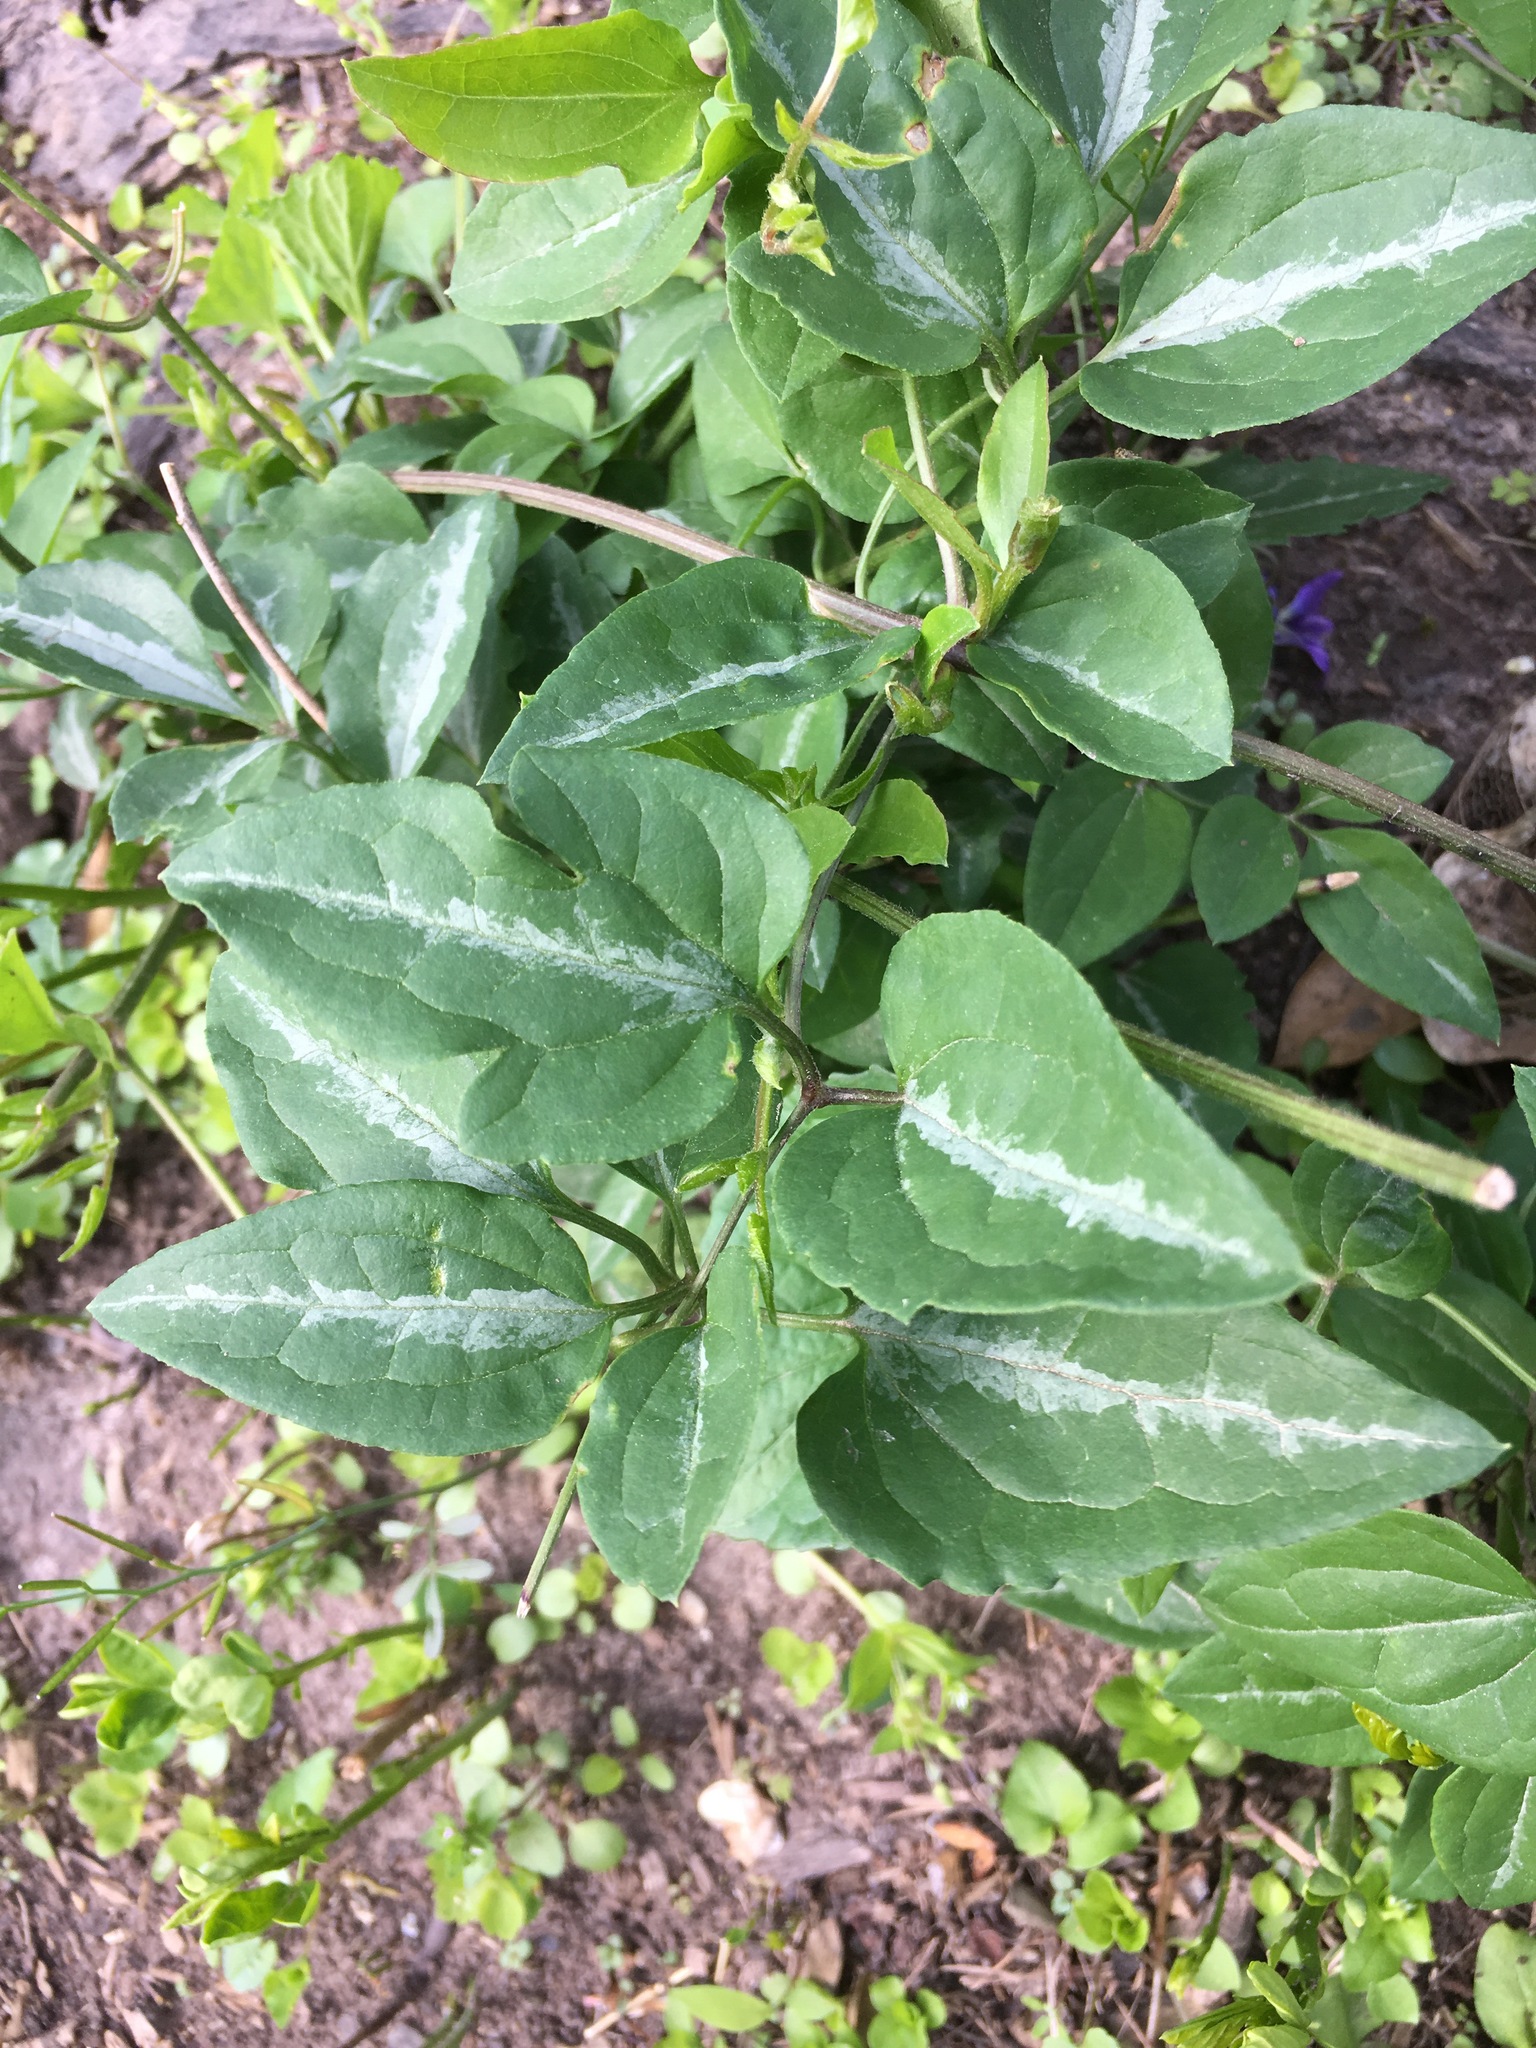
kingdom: Plantae
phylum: Tracheophyta
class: Magnoliopsida
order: Ranunculales
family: Ranunculaceae
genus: Clematis
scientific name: Clematis terniflora
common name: Sweet autumn clematis
